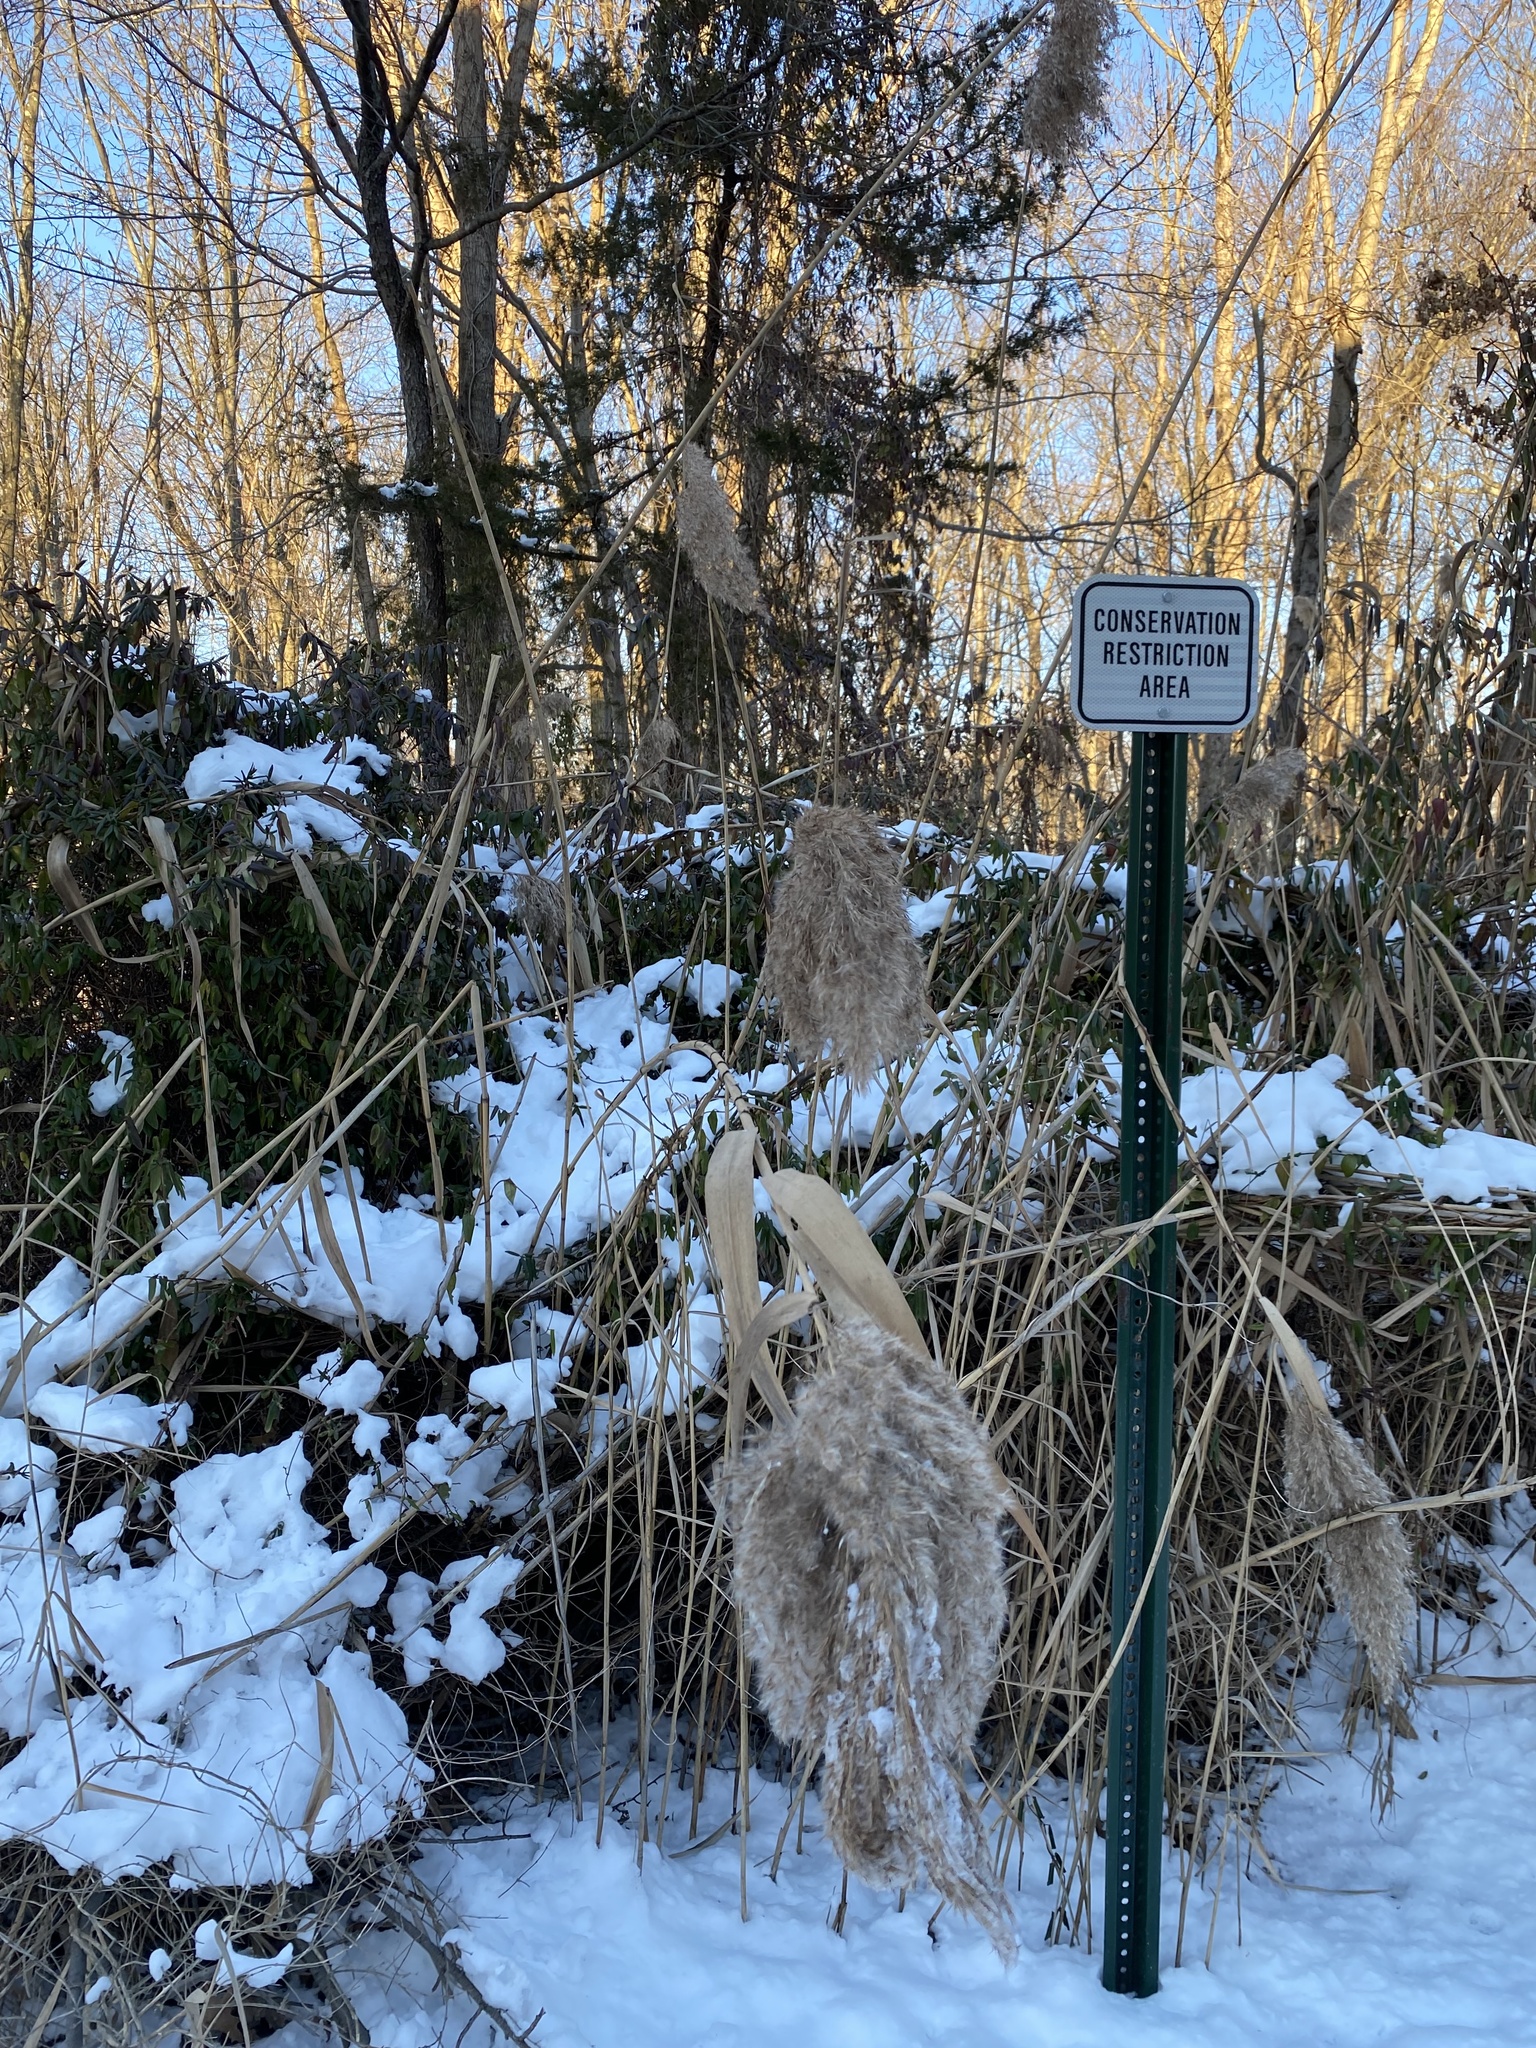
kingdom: Plantae
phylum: Tracheophyta
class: Liliopsida
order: Poales
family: Poaceae
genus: Phragmites
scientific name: Phragmites australis
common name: Common reed
